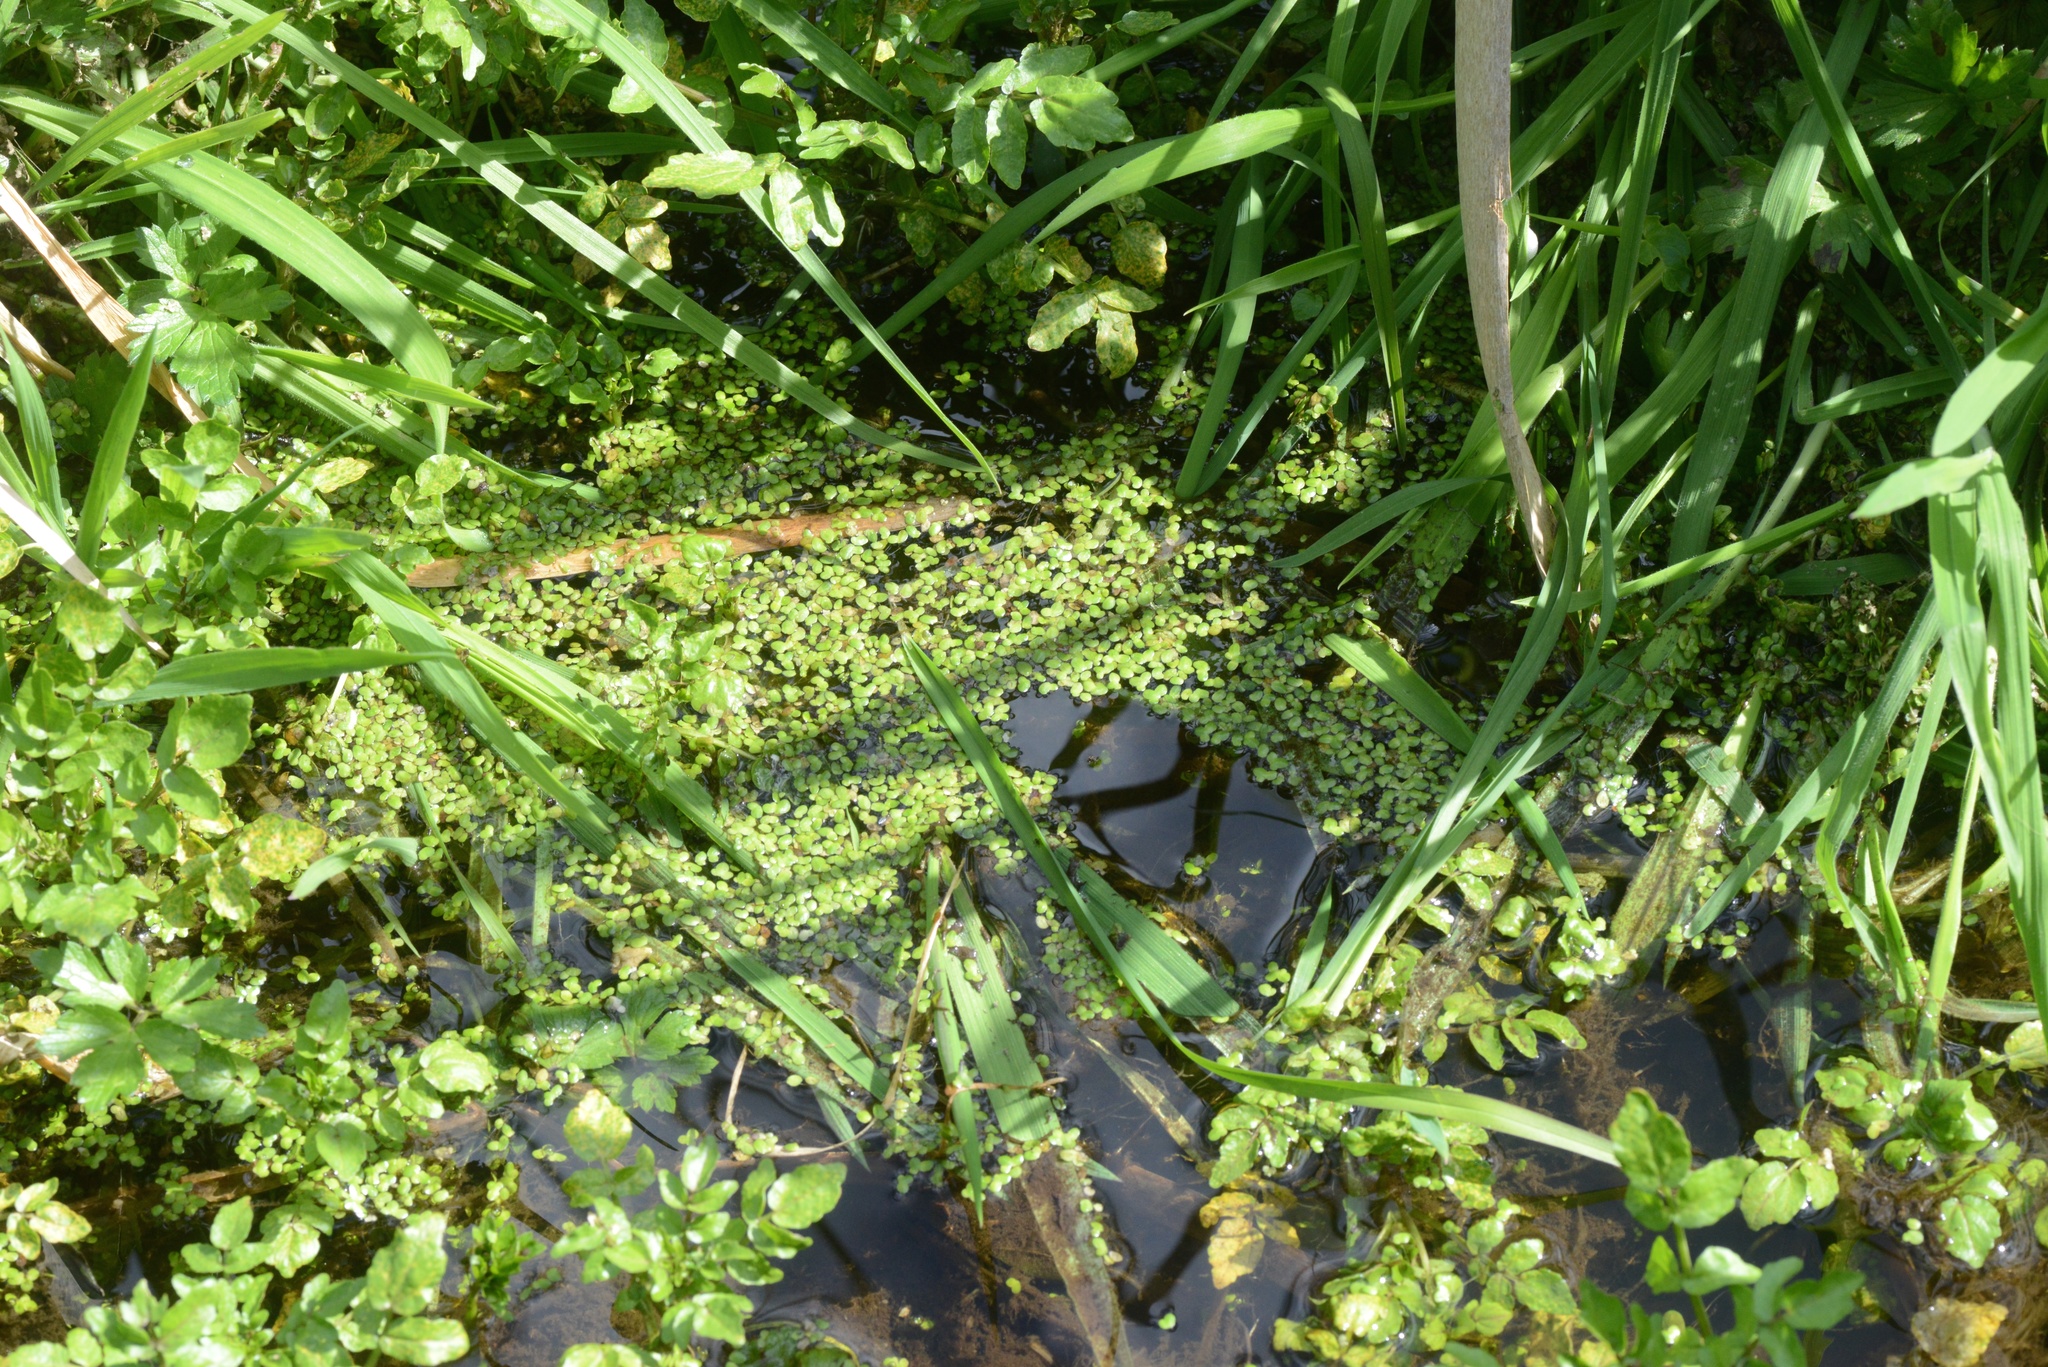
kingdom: Plantae
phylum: Tracheophyta
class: Liliopsida
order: Alismatales
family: Araceae
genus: Lemna
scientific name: Lemna
